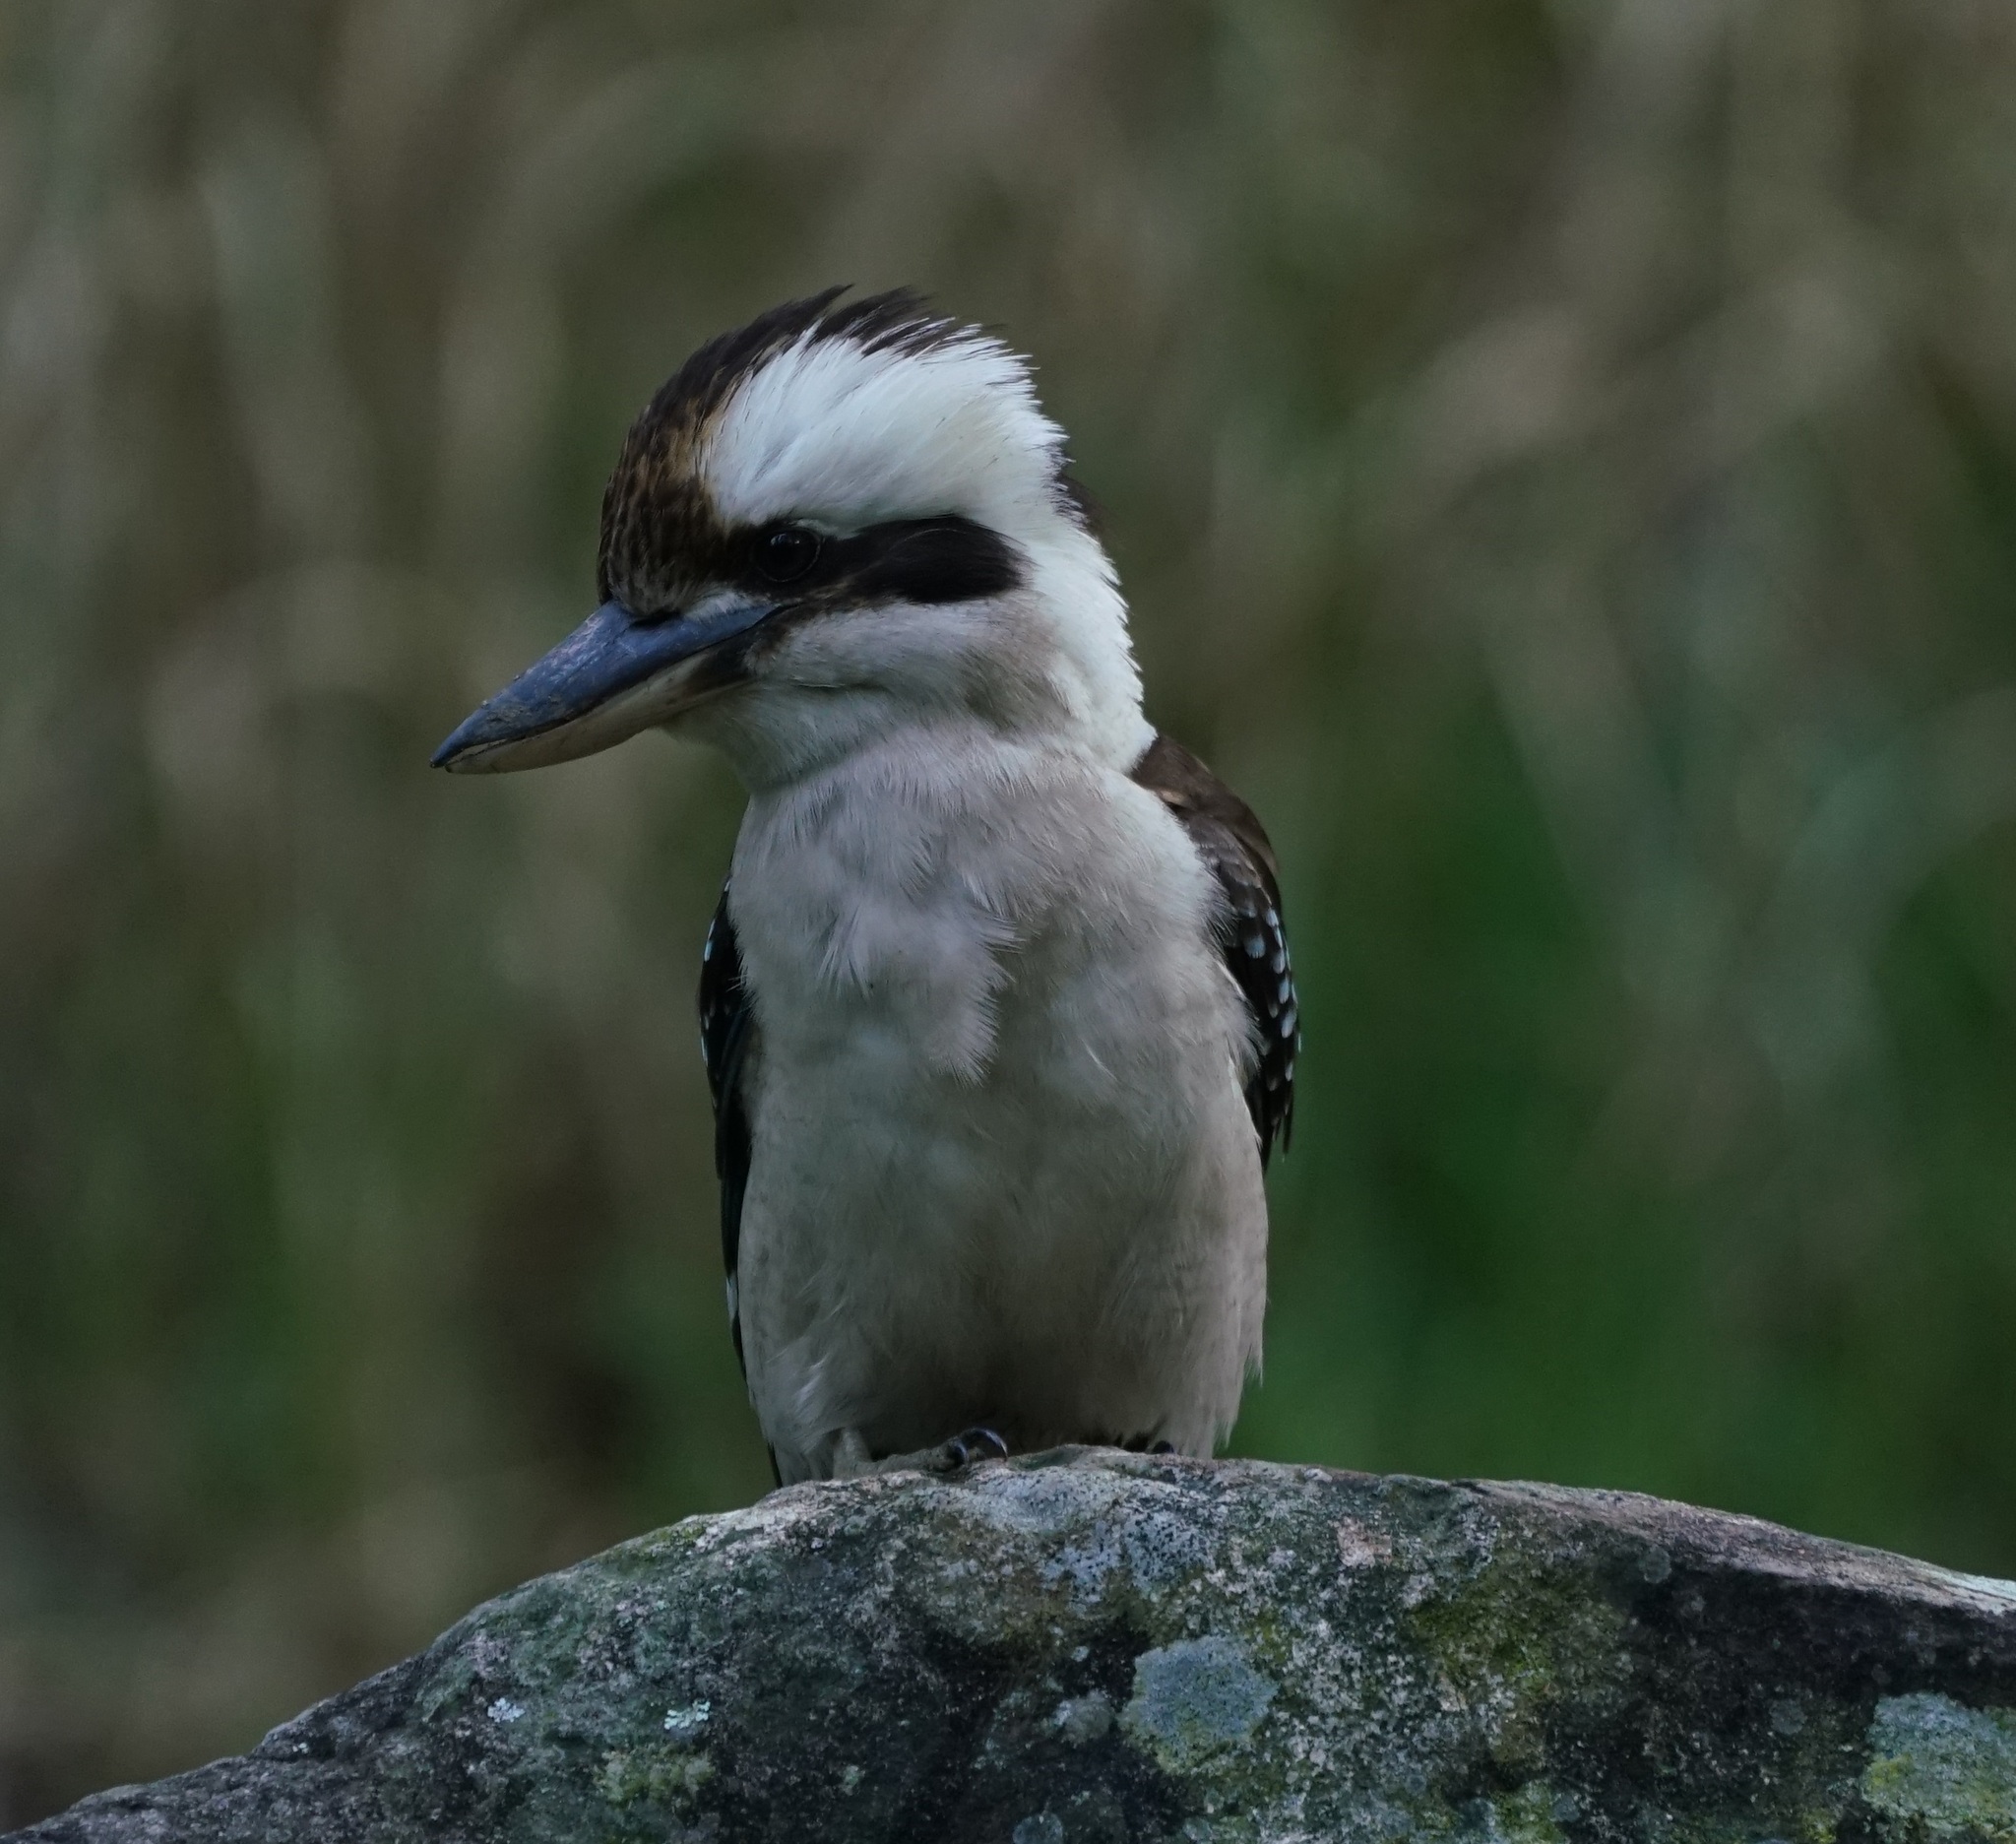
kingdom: Animalia
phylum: Chordata
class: Aves
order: Coraciiformes
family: Alcedinidae
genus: Dacelo
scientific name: Dacelo novaeguineae
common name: Laughing kookaburra
